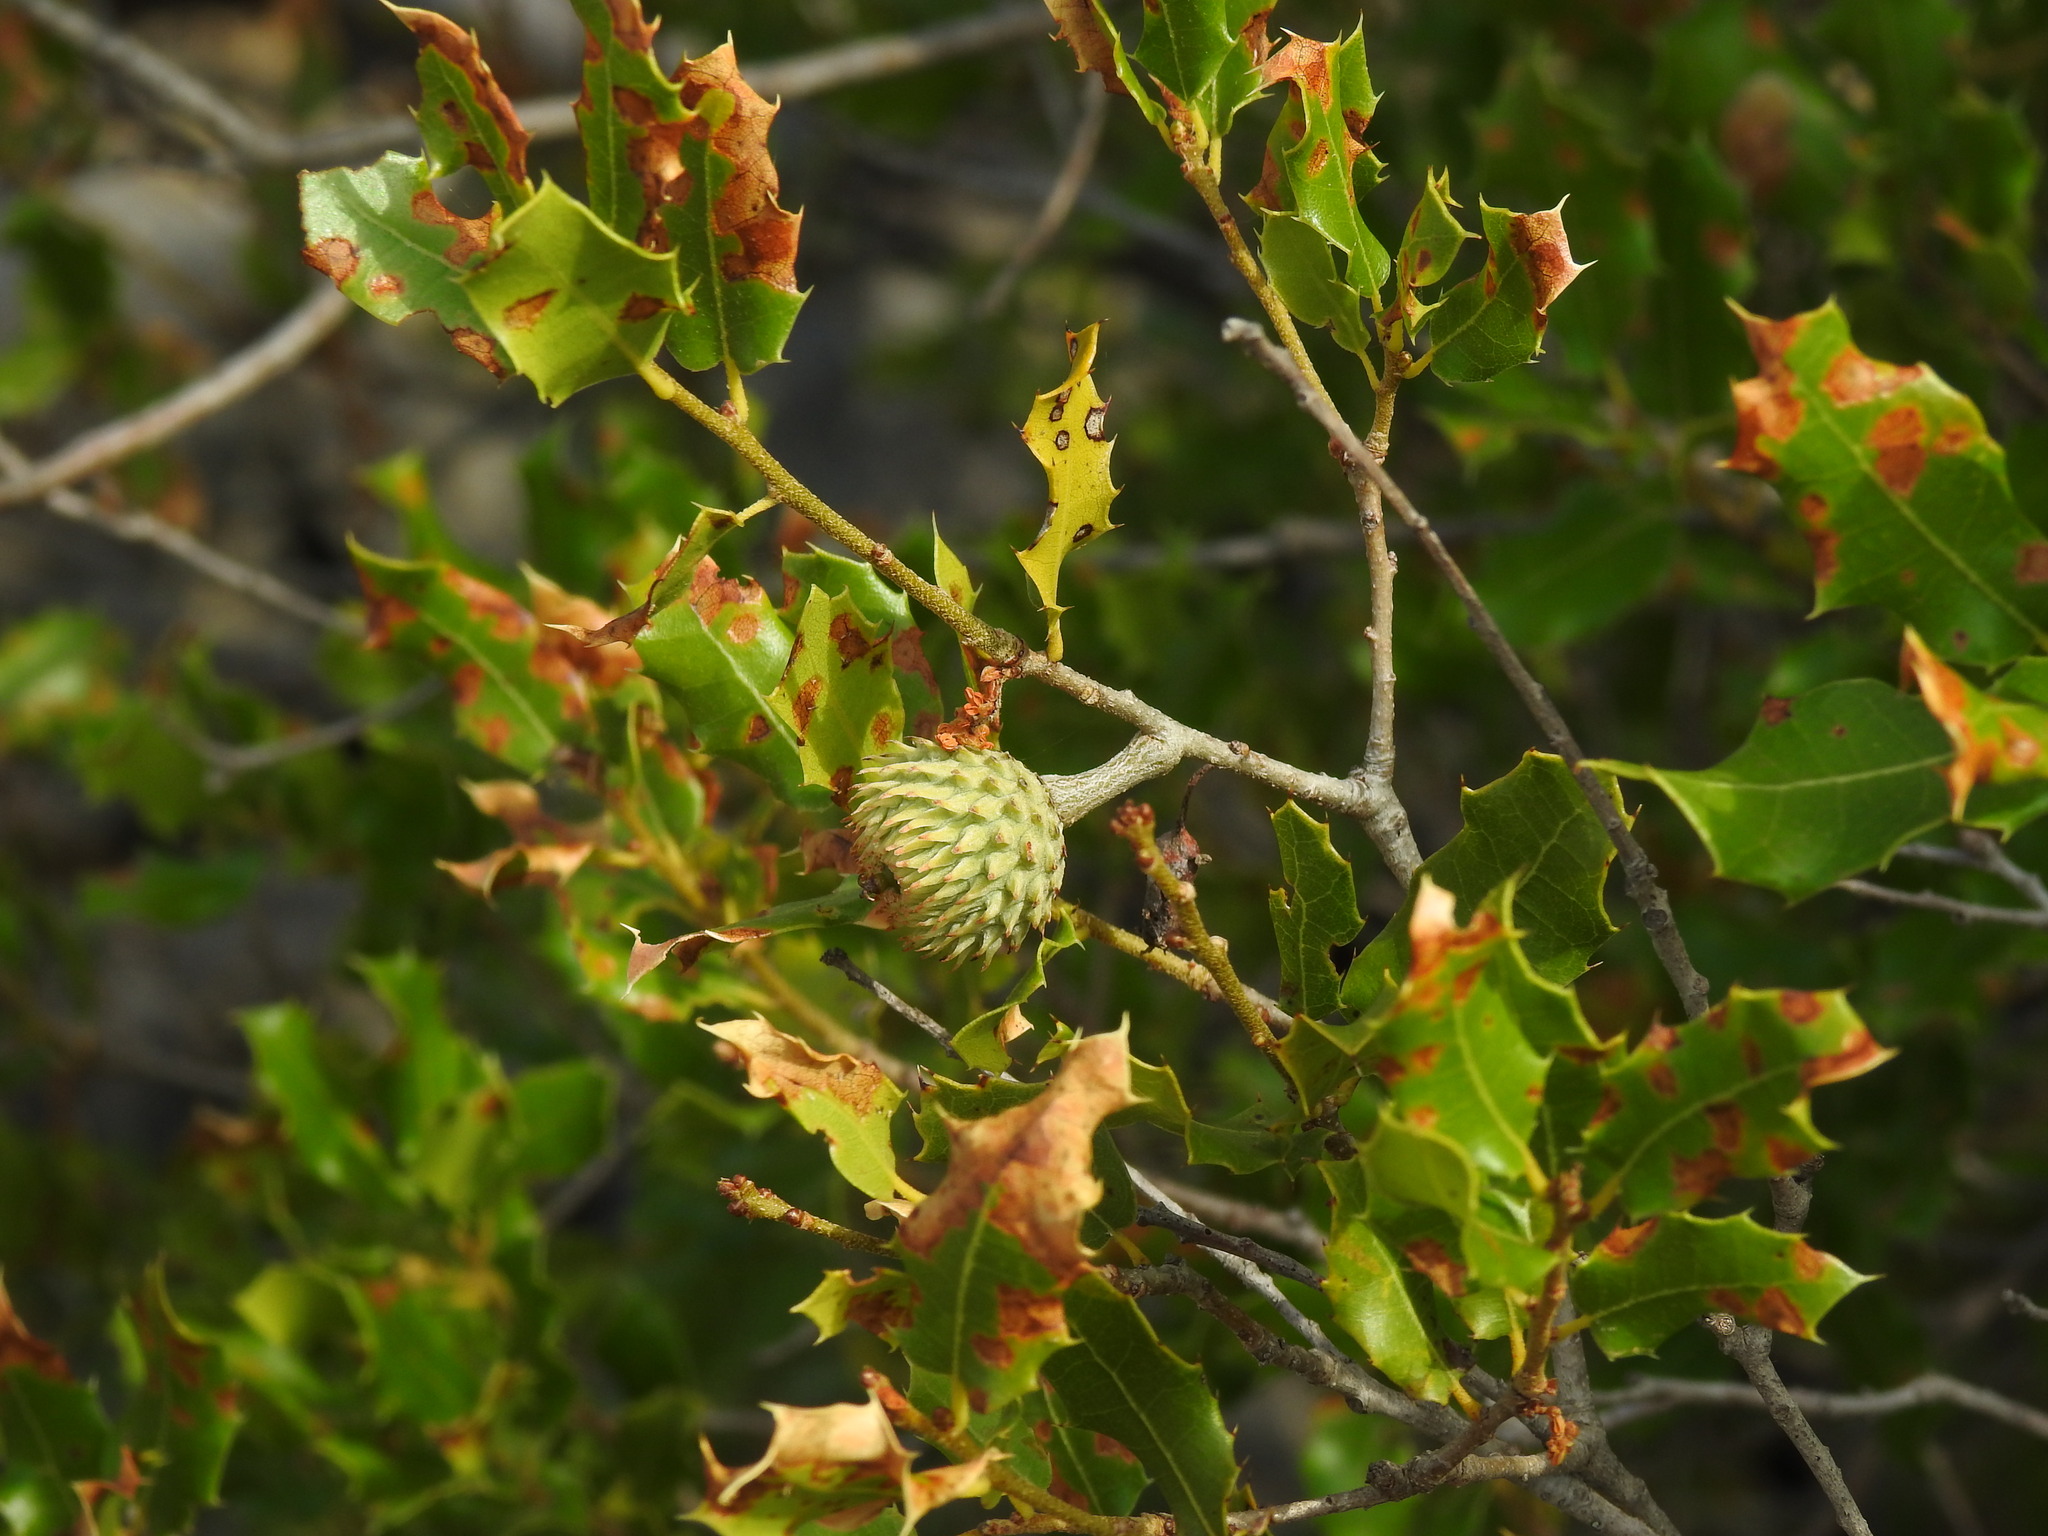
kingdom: Plantae
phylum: Tracheophyta
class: Magnoliopsida
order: Fagales
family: Fagaceae
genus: Quercus
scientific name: Quercus coccifera
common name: Kermes oak
